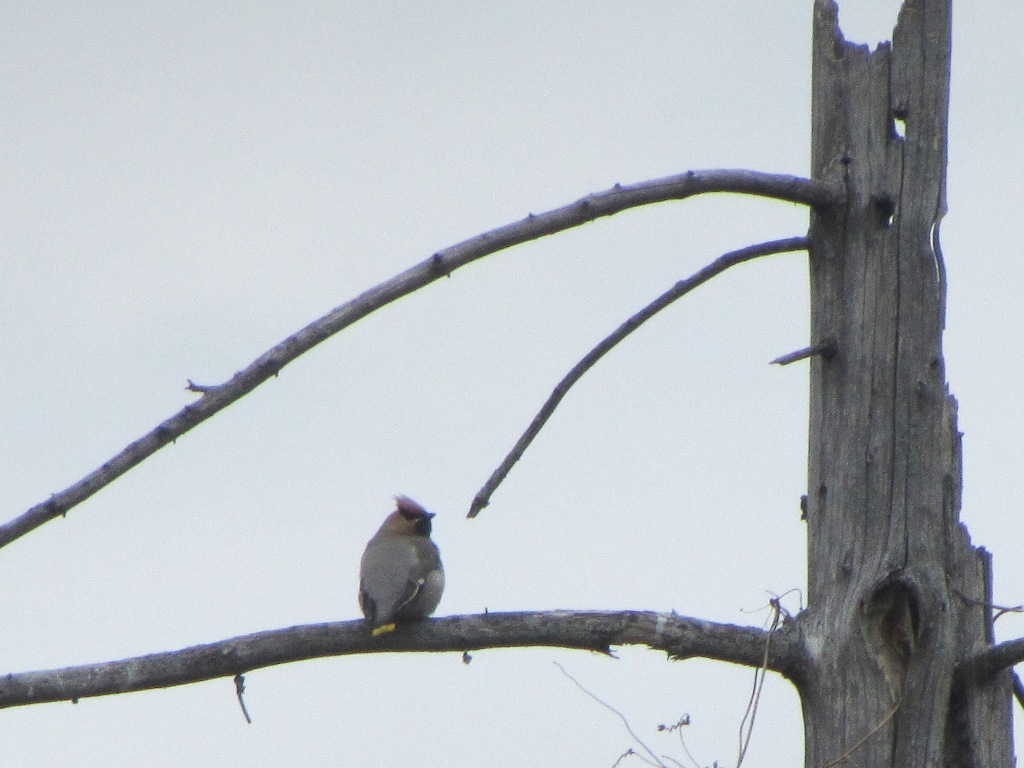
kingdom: Animalia
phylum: Chordata
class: Aves
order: Passeriformes
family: Bombycillidae
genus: Bombycilla
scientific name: Bombycilla garrulus
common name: Bohemian waxwing
